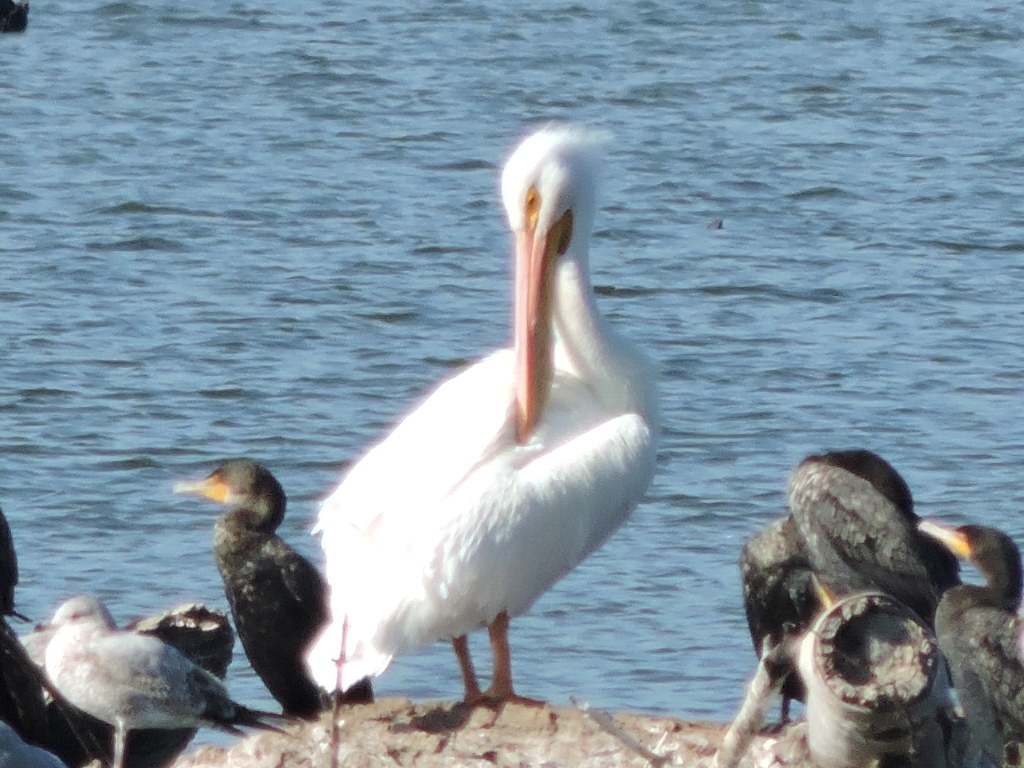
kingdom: Animalia
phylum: Chordata
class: Aves
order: Pelecaniformes
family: Pelecanidae
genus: Pelecanus
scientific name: Pelecanus erythrorhynchos
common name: American white pelican
